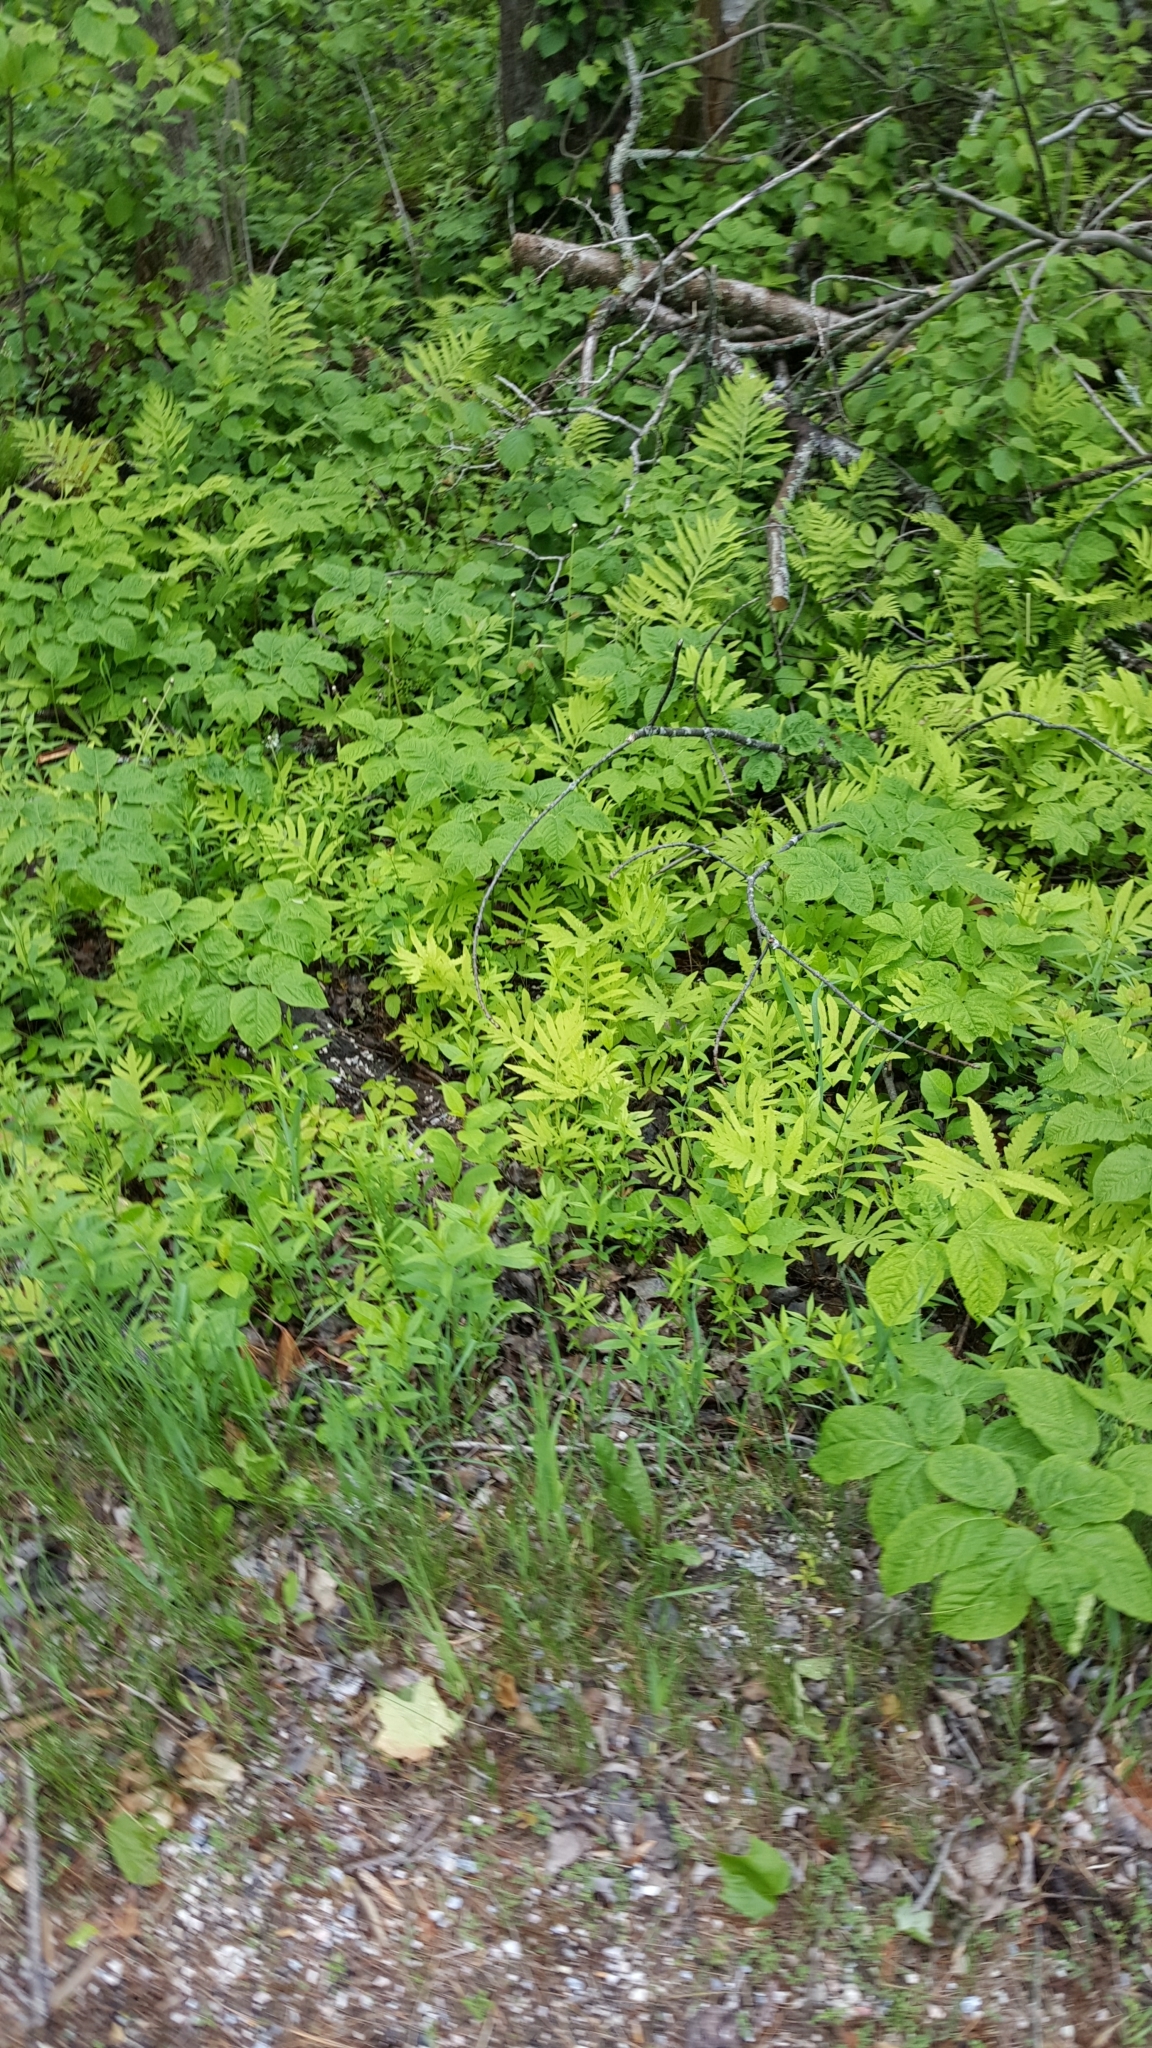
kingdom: Plantae
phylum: Tracheophyta
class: Polypodiopsida
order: Polypodiales
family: Onocleaceae
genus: Onoclea
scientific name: Onoclea sensibilis
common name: Sensitive fern
